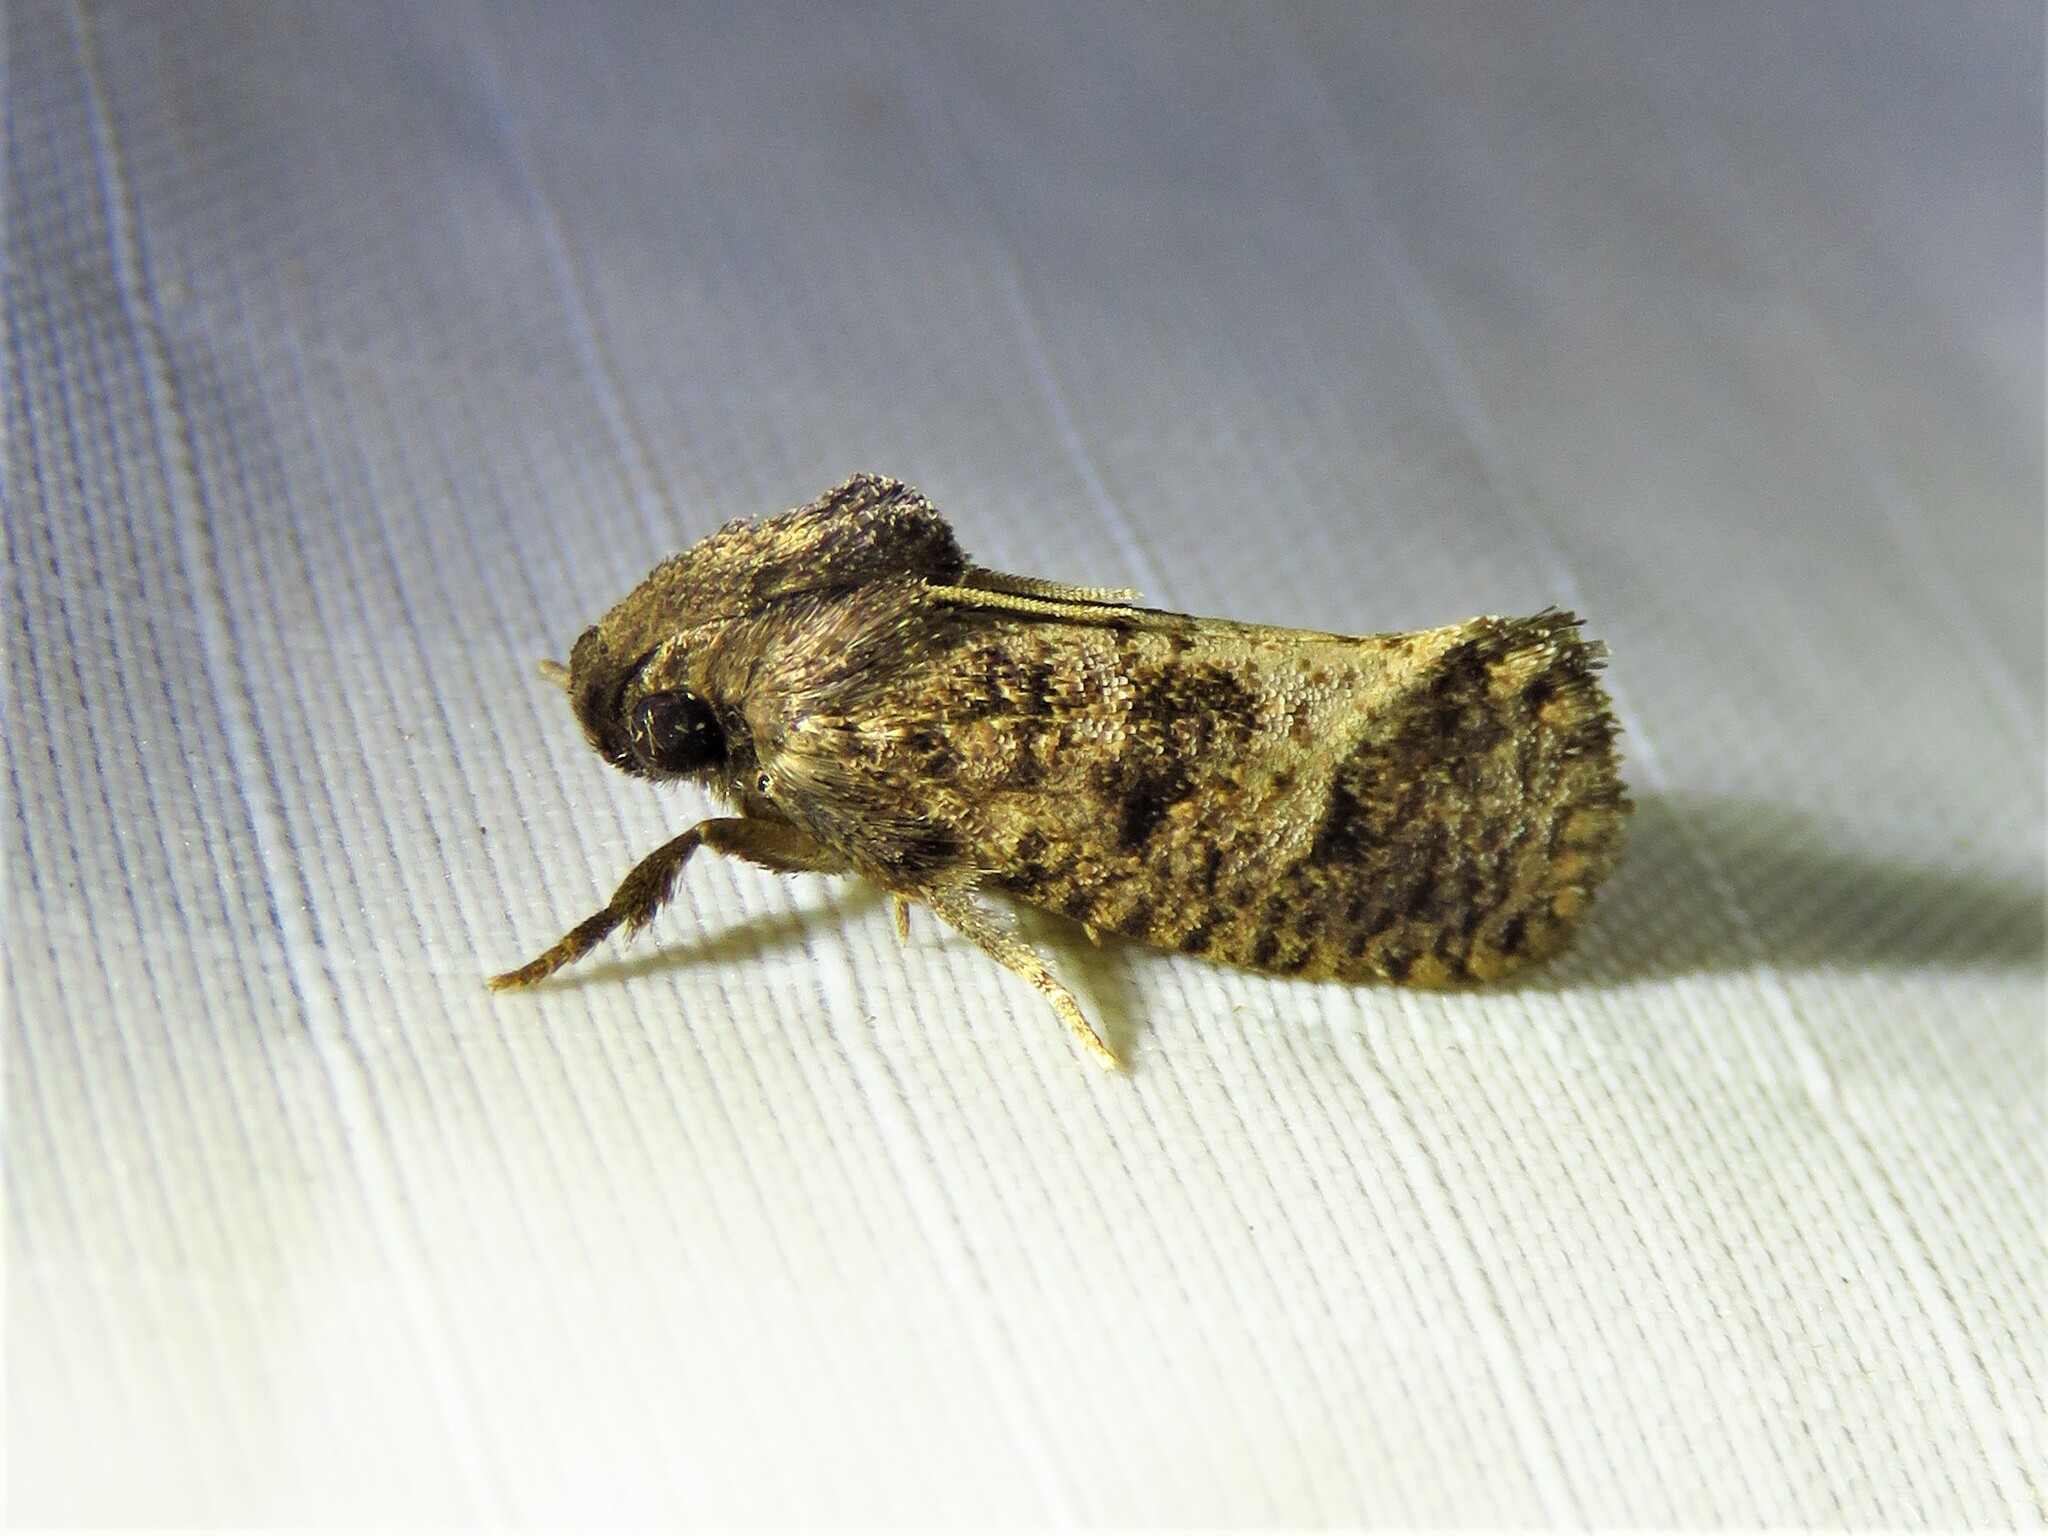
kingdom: Animalia
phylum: Arthropoda
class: Insecta
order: Lepidoptera
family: Tineidae
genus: Acrolophus
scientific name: Acrolophus texanella
